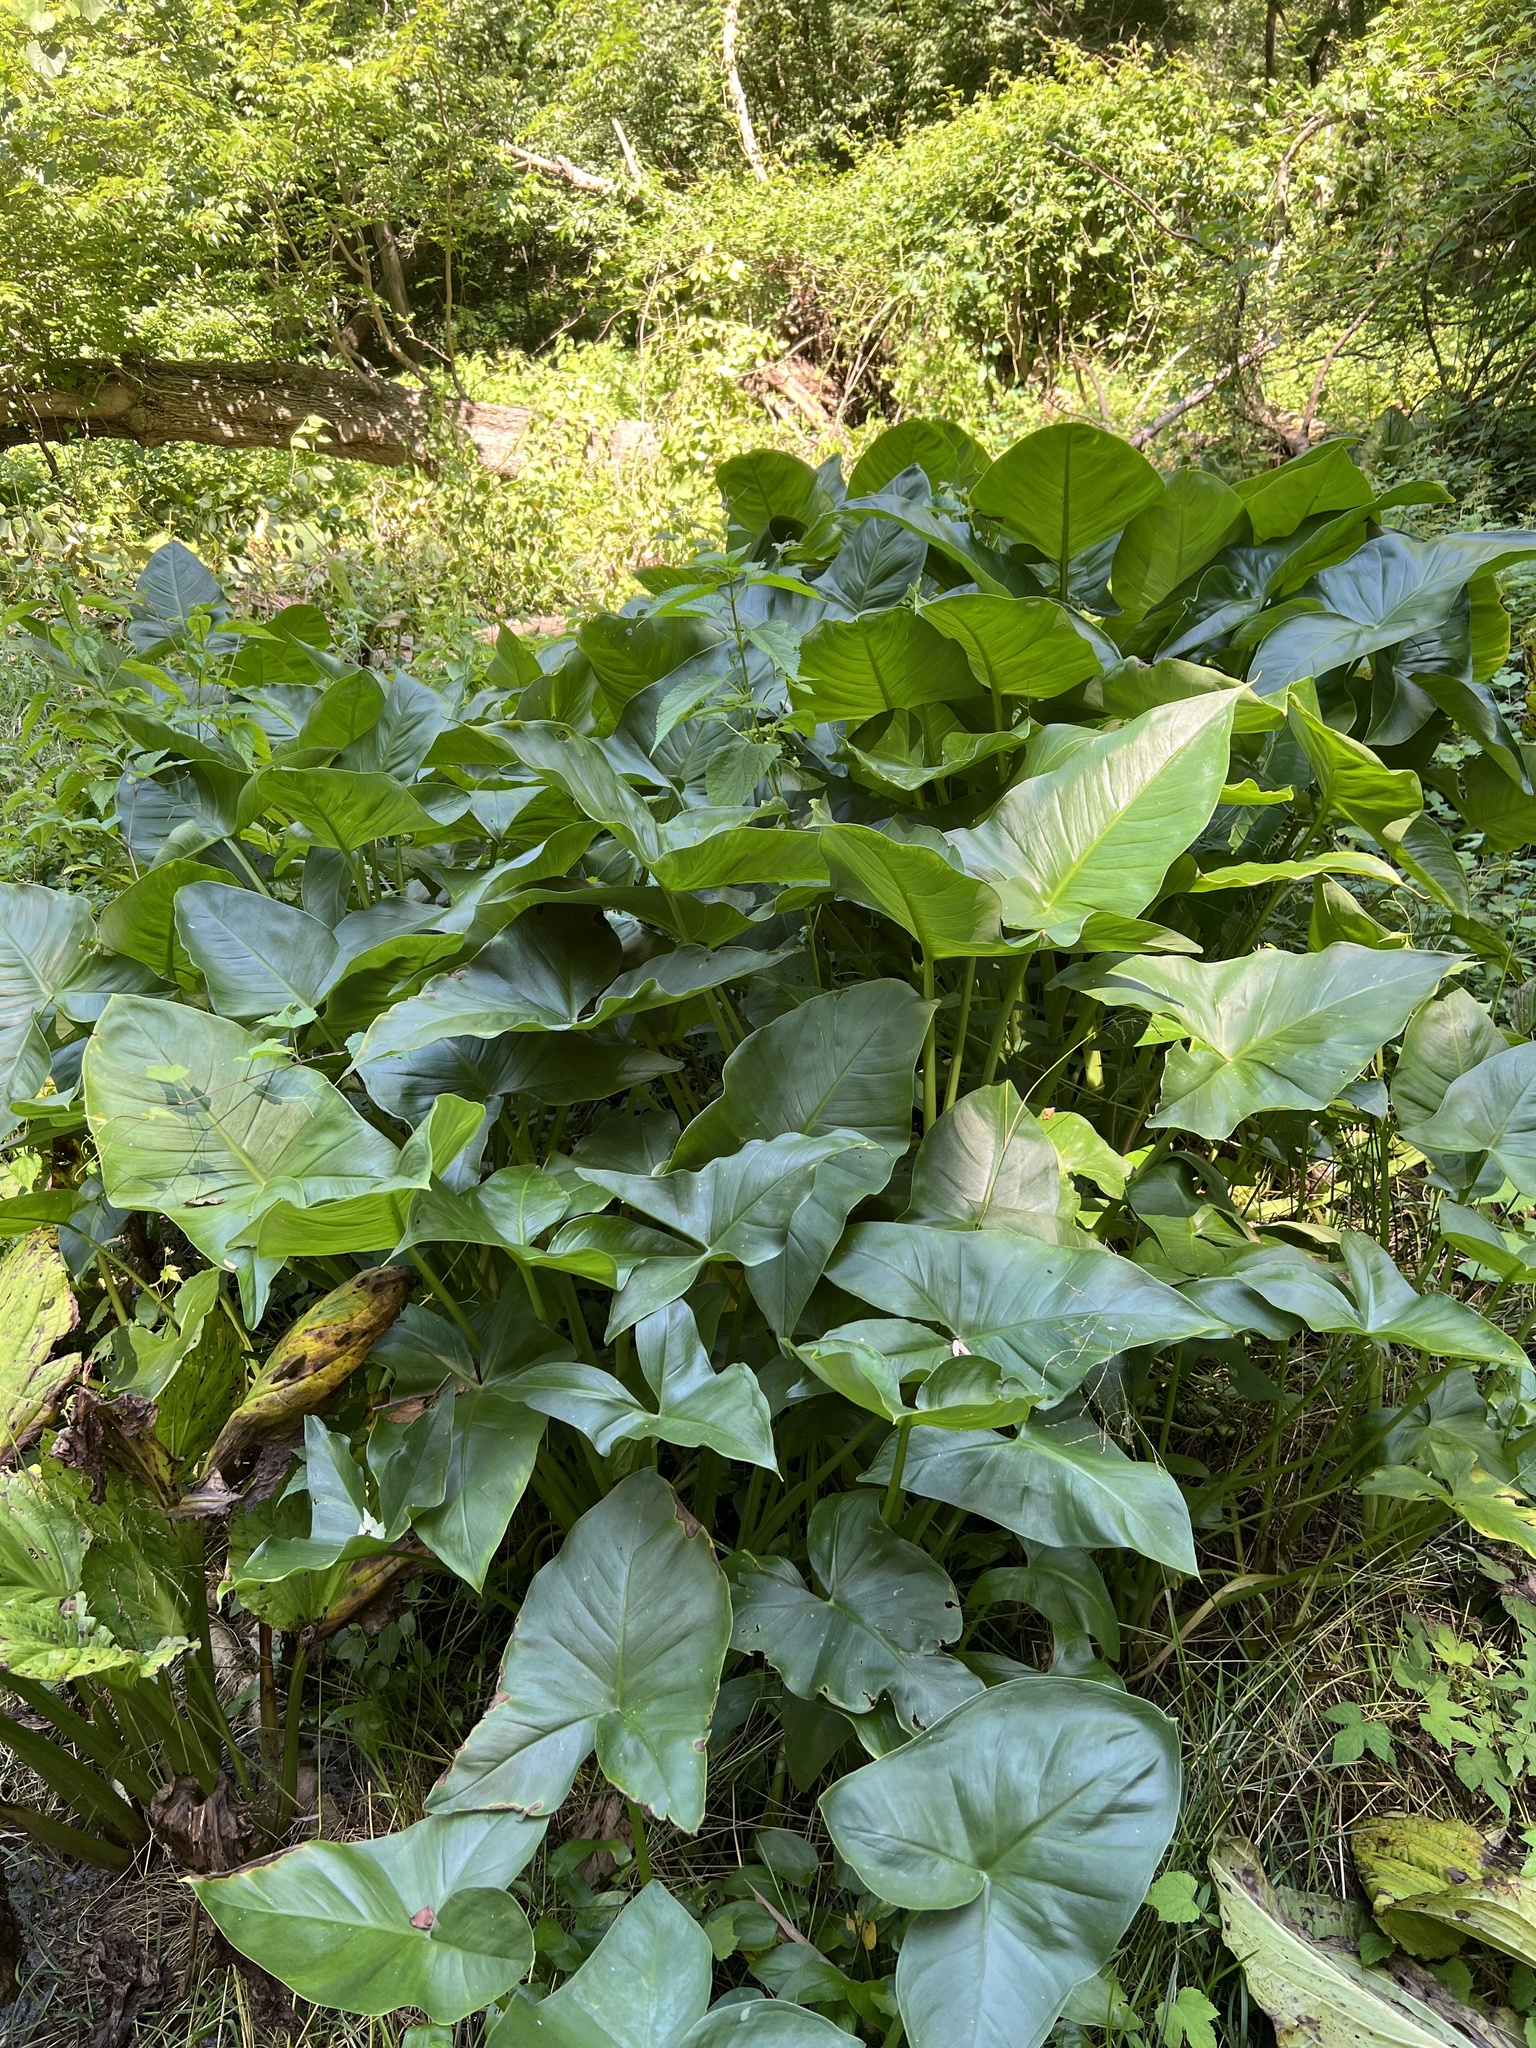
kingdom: Plantae
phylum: Tracheophyta
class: Liliopsida
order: Alismatales
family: Araceae
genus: Peltandra
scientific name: Peltandra virginica
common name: Arrow arum
